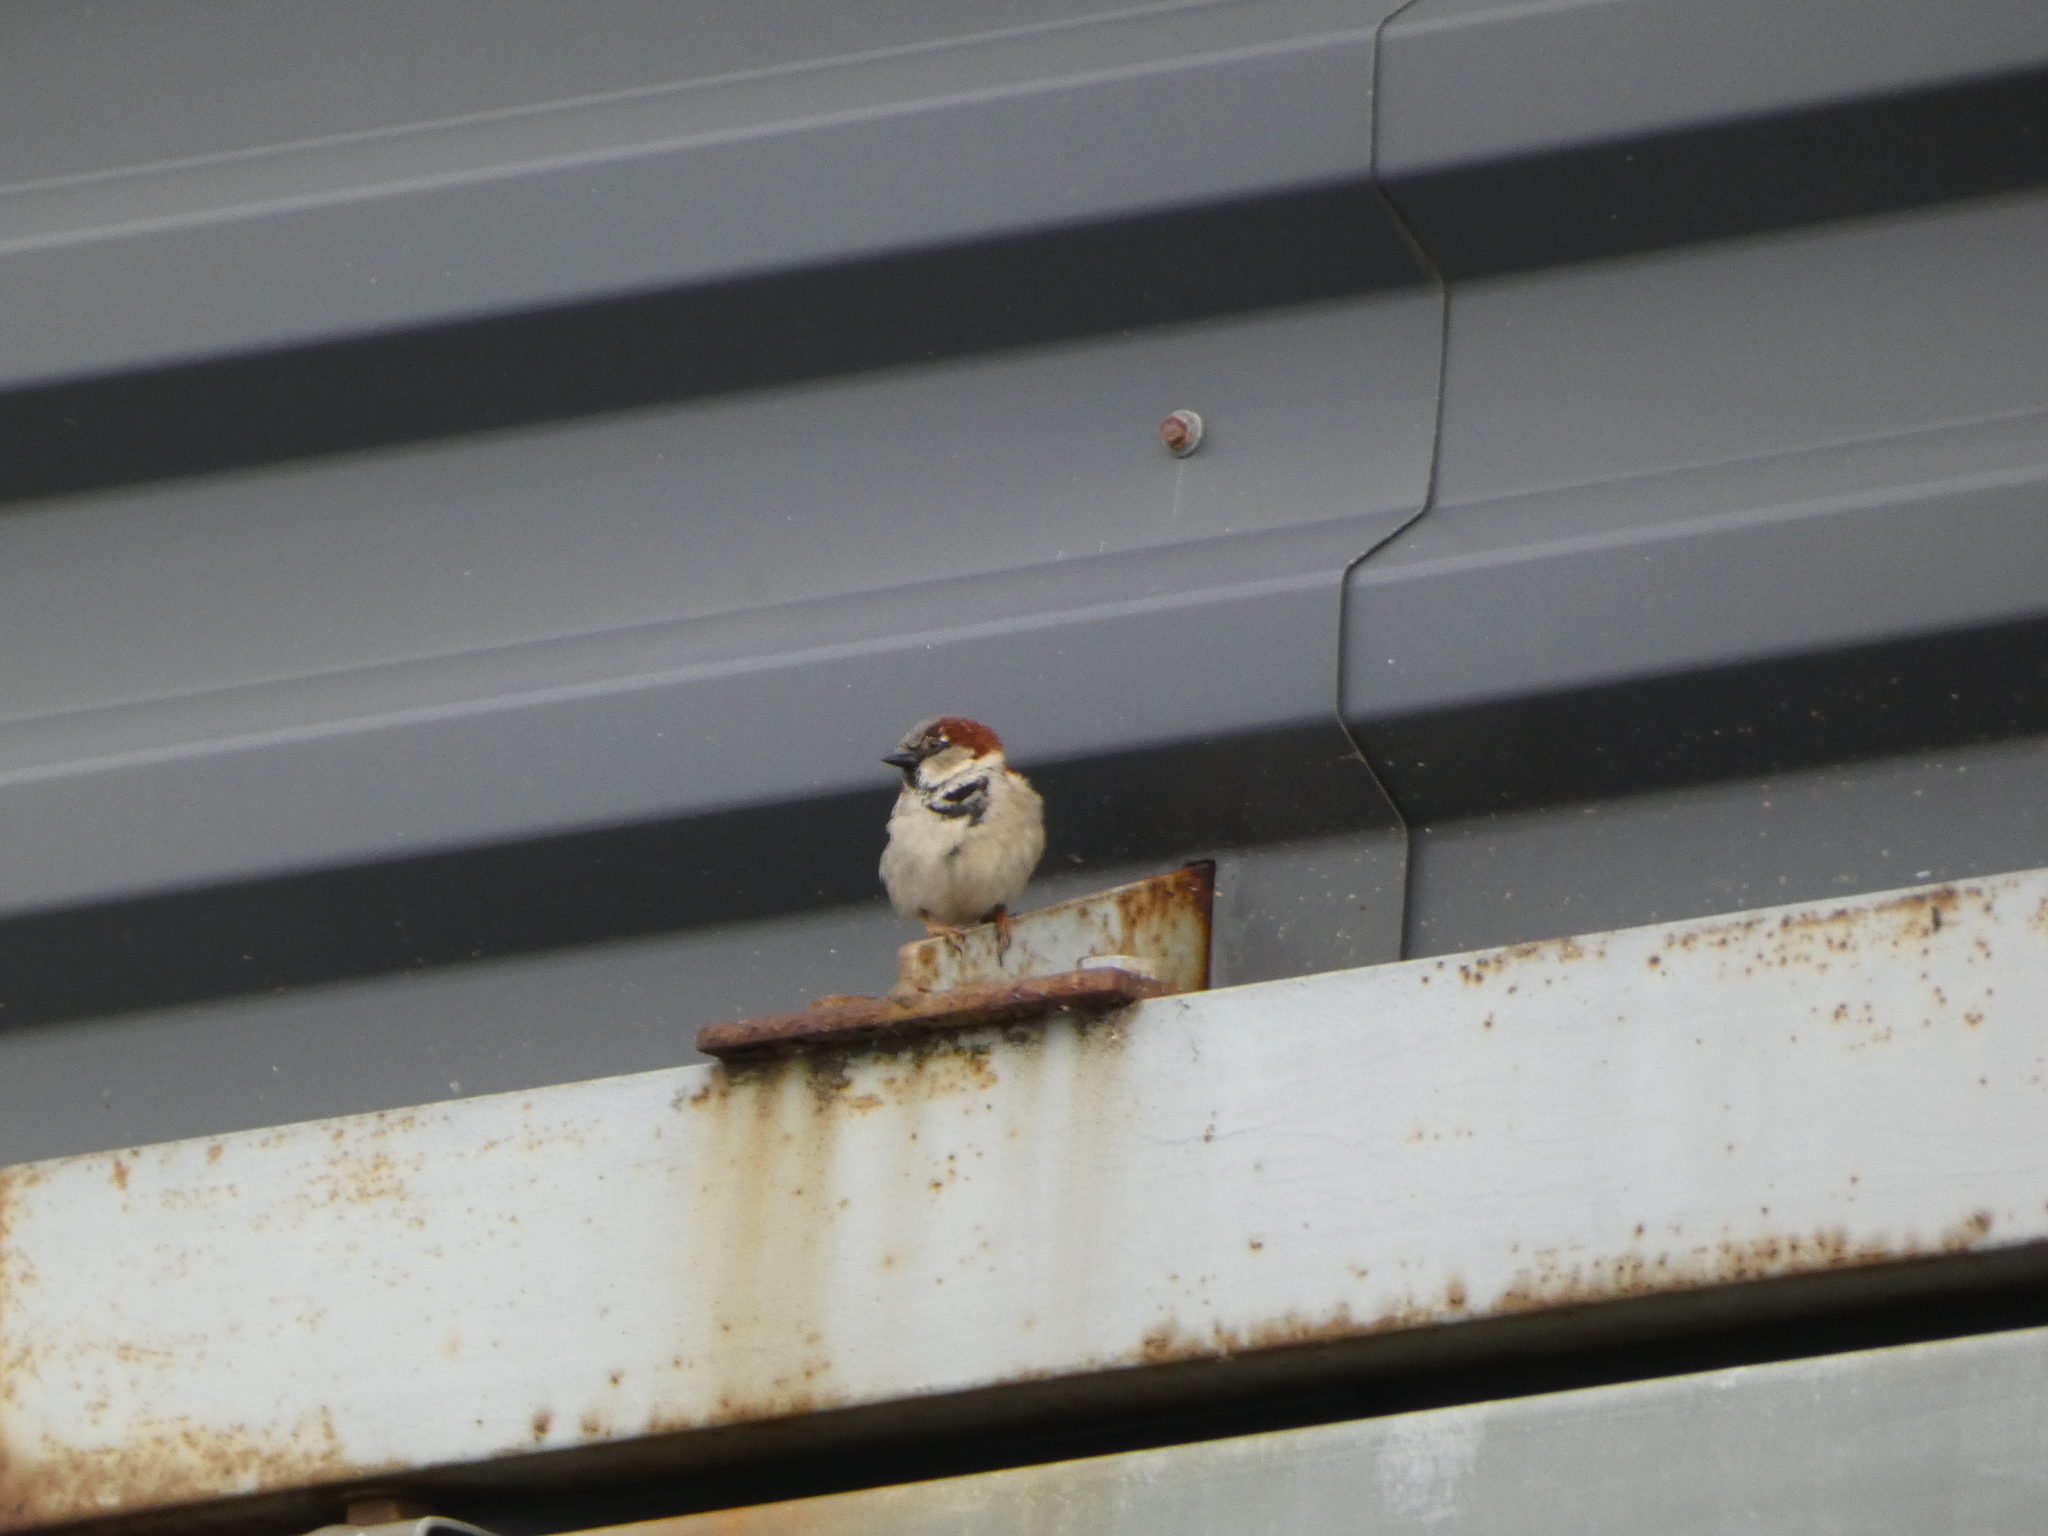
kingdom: Animalia
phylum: Chordata
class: Aves
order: Passeriformes
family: Passeridae
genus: Passer
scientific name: Passer domesticus
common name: House sparrow
